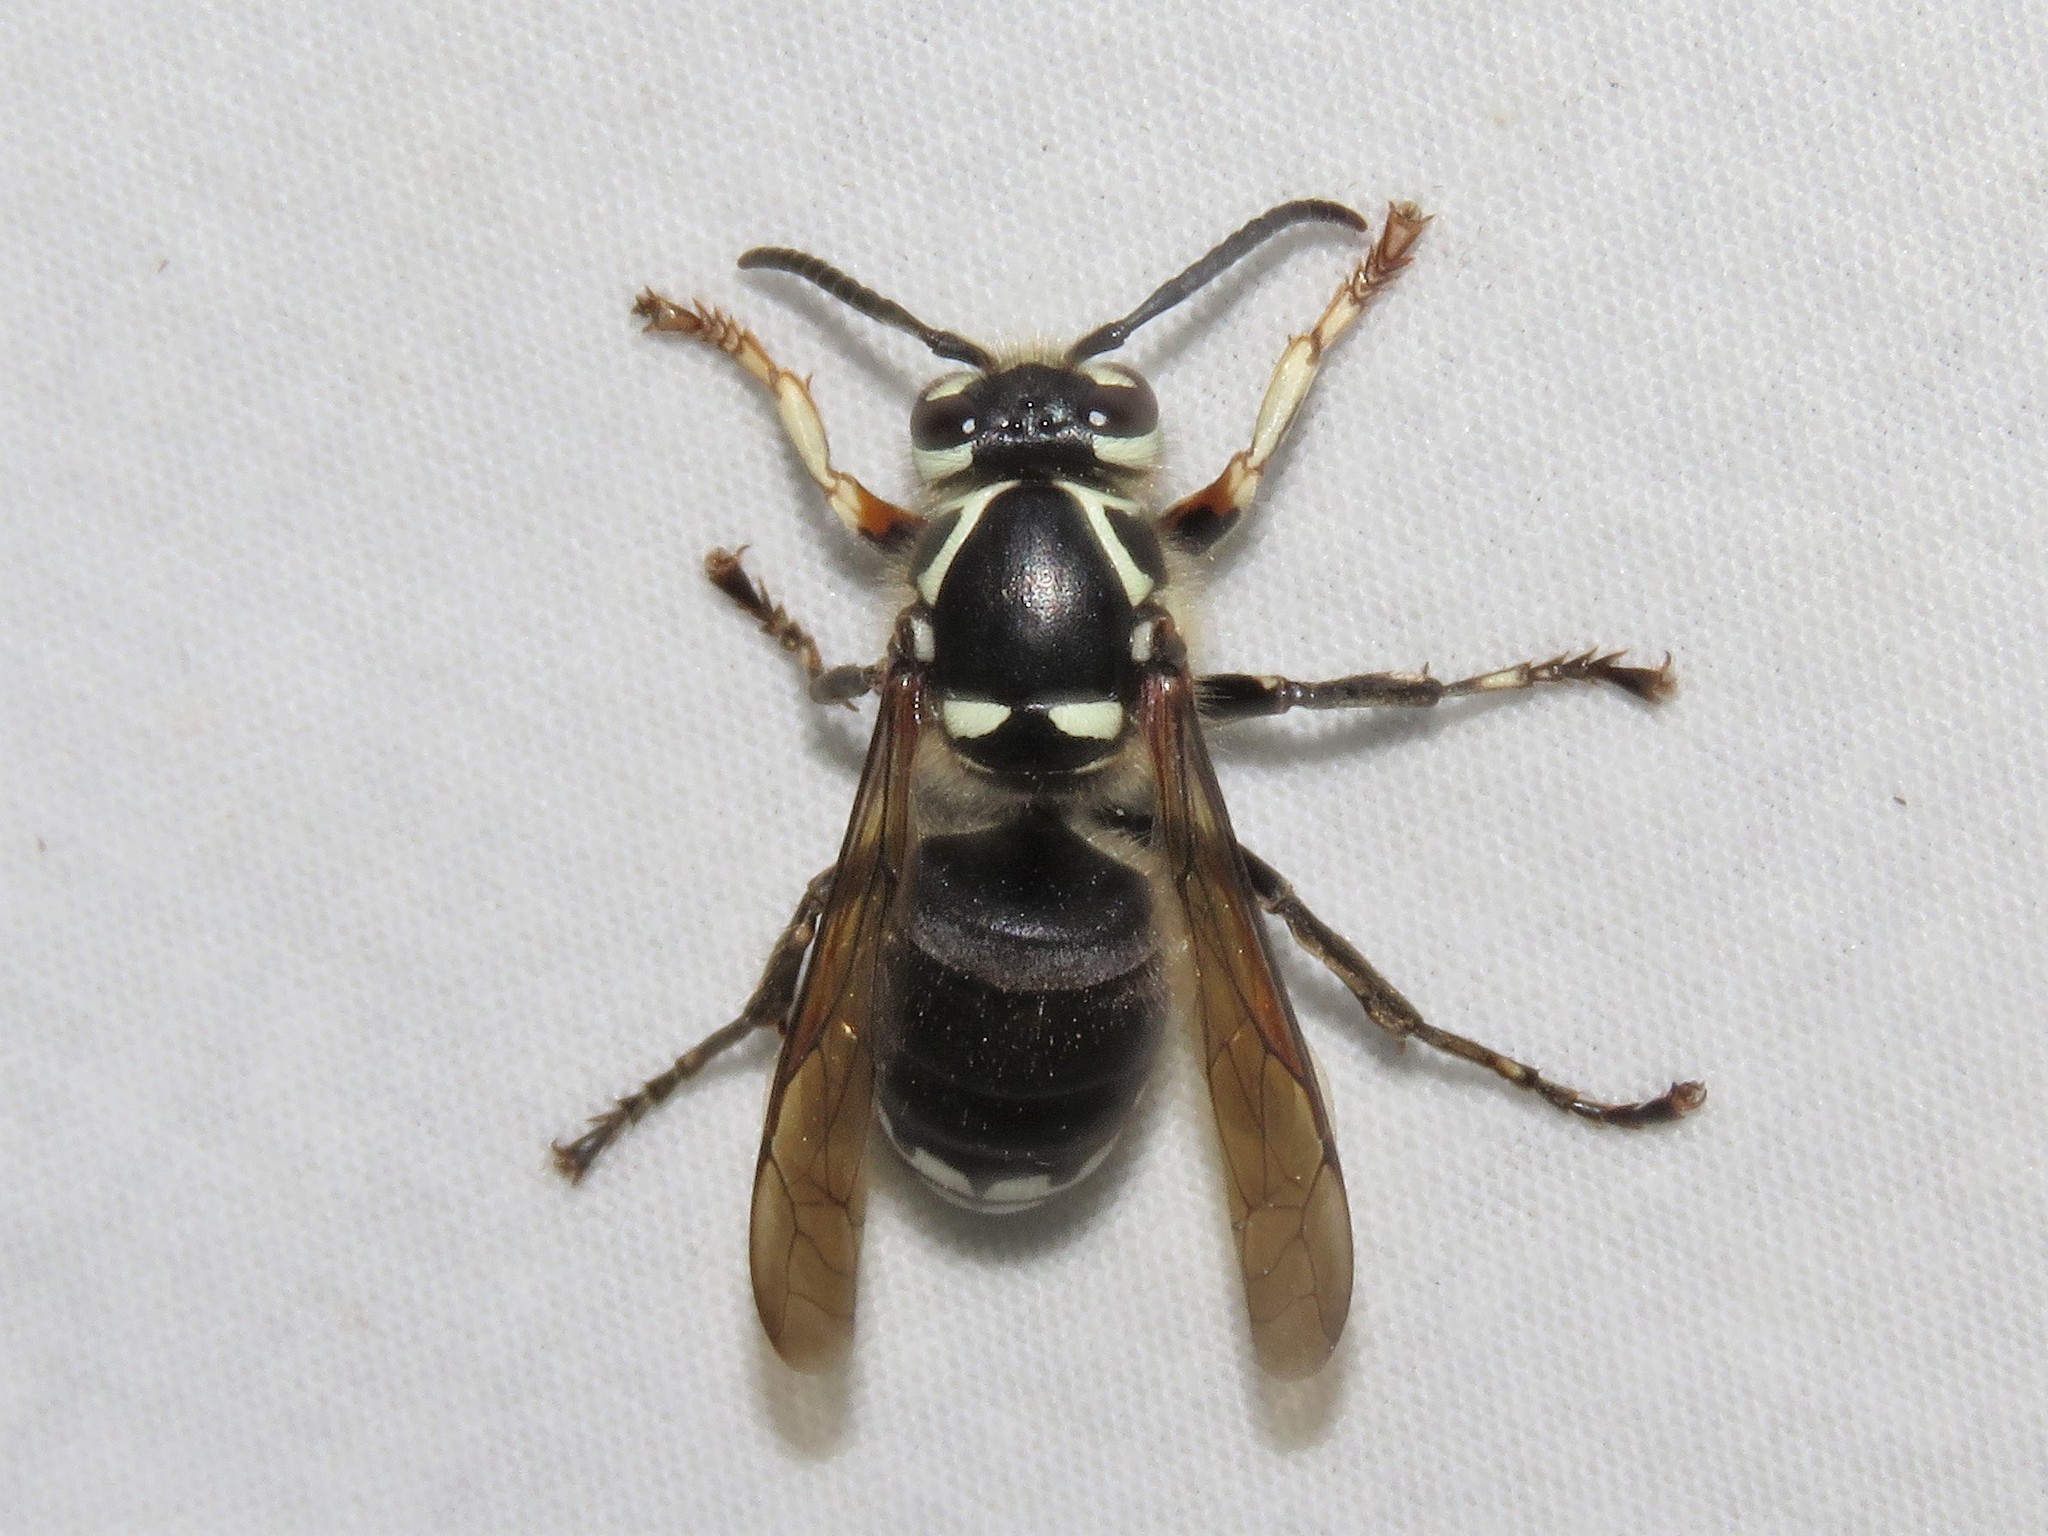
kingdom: Animalia
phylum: Arthropoda
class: Insecta
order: Hymenoptera
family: Vespidae
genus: Dolichovespula
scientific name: Dolichovespula maculata
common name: Bald-faced hornet
